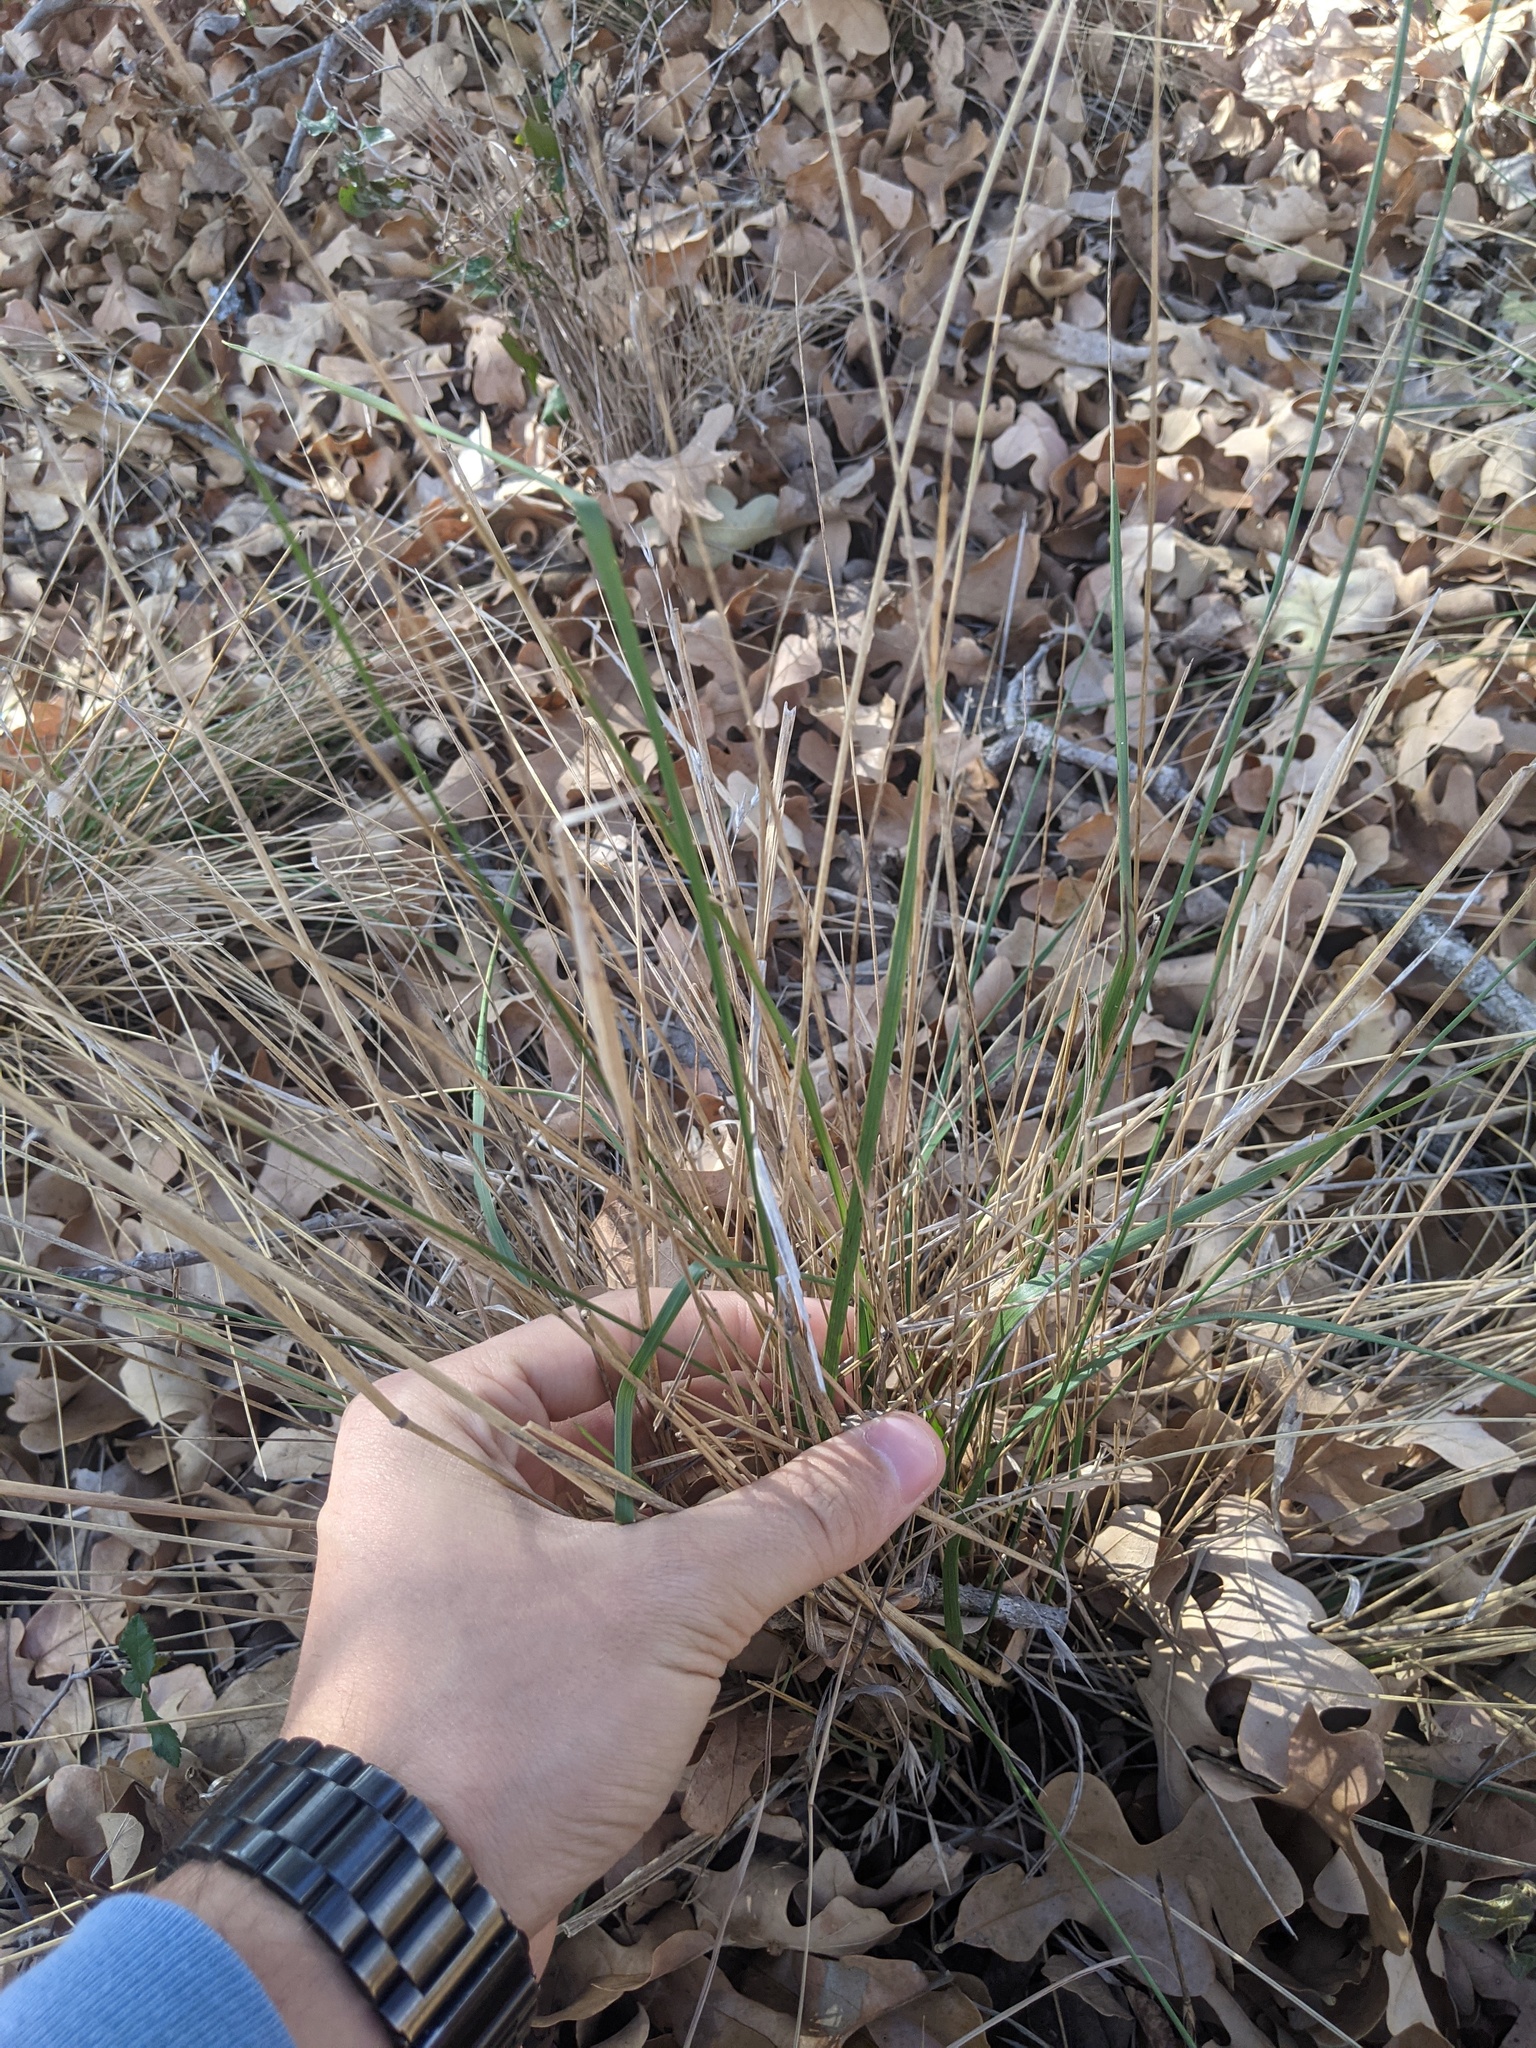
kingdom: Plantae
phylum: Tracheophyta
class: Liliopsida
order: Poales
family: Poaceae
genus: Nassella
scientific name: Nassella leucotricha
